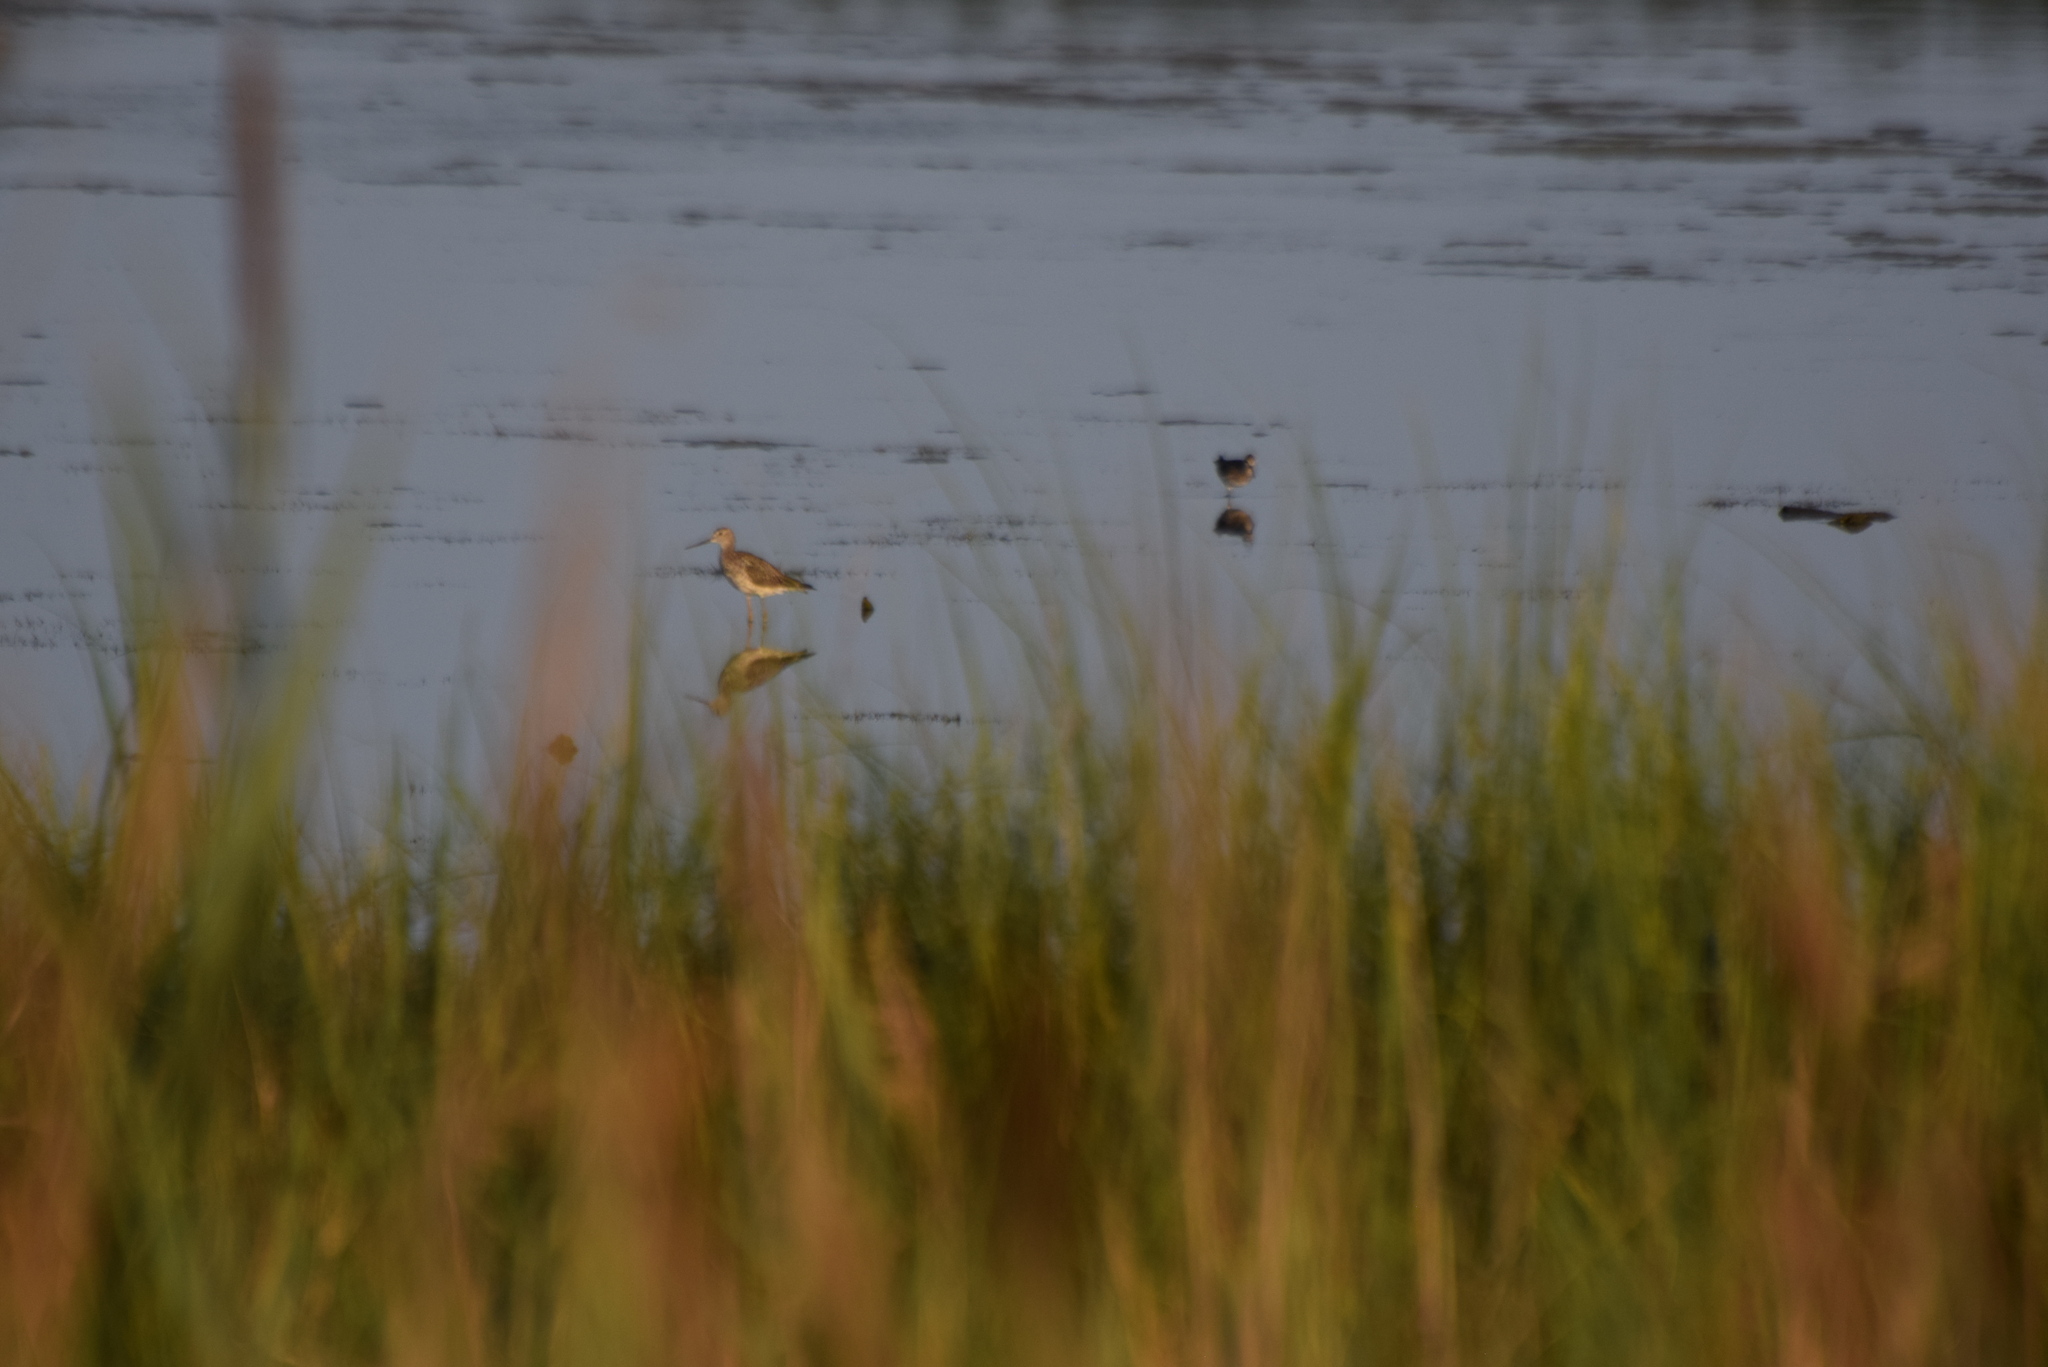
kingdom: Animalia
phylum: Chordata
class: Aves
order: Charadriiformes
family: Scolopacidae
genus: Tringa
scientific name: Tringa melanoleuca
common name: Greater yellowlegs
